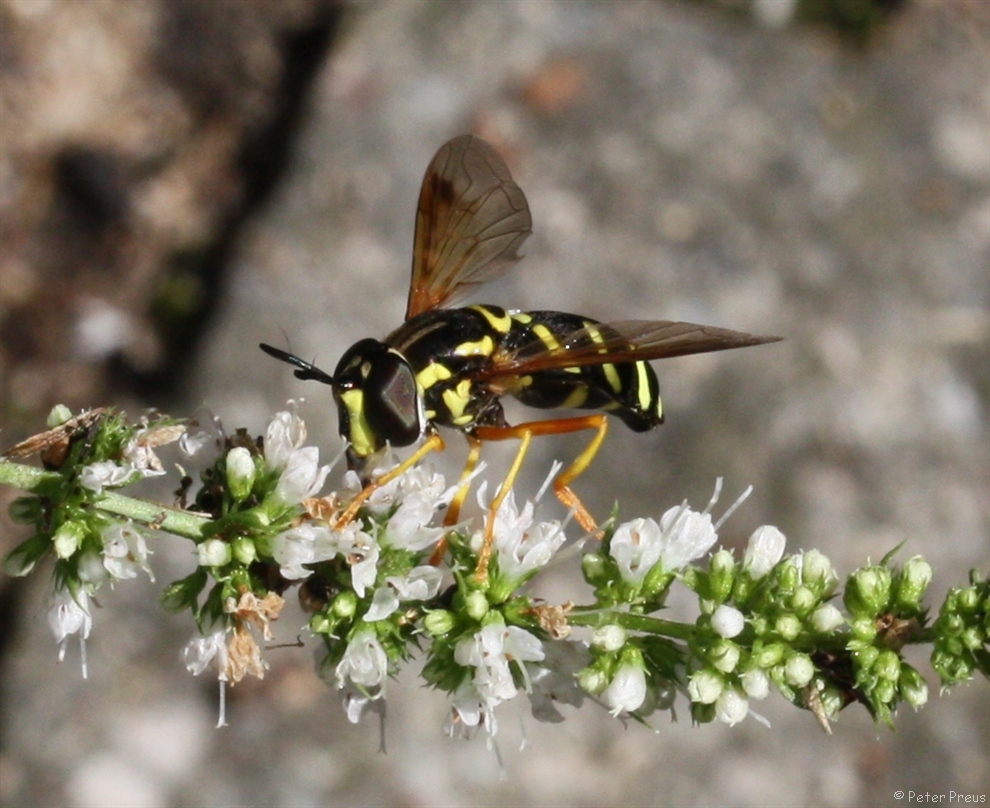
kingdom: Animalia
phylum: Arthropoda
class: Insecta
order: Diptera
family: Syrphidae
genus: Chrysotoxum
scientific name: Chrysotoxum festivum
